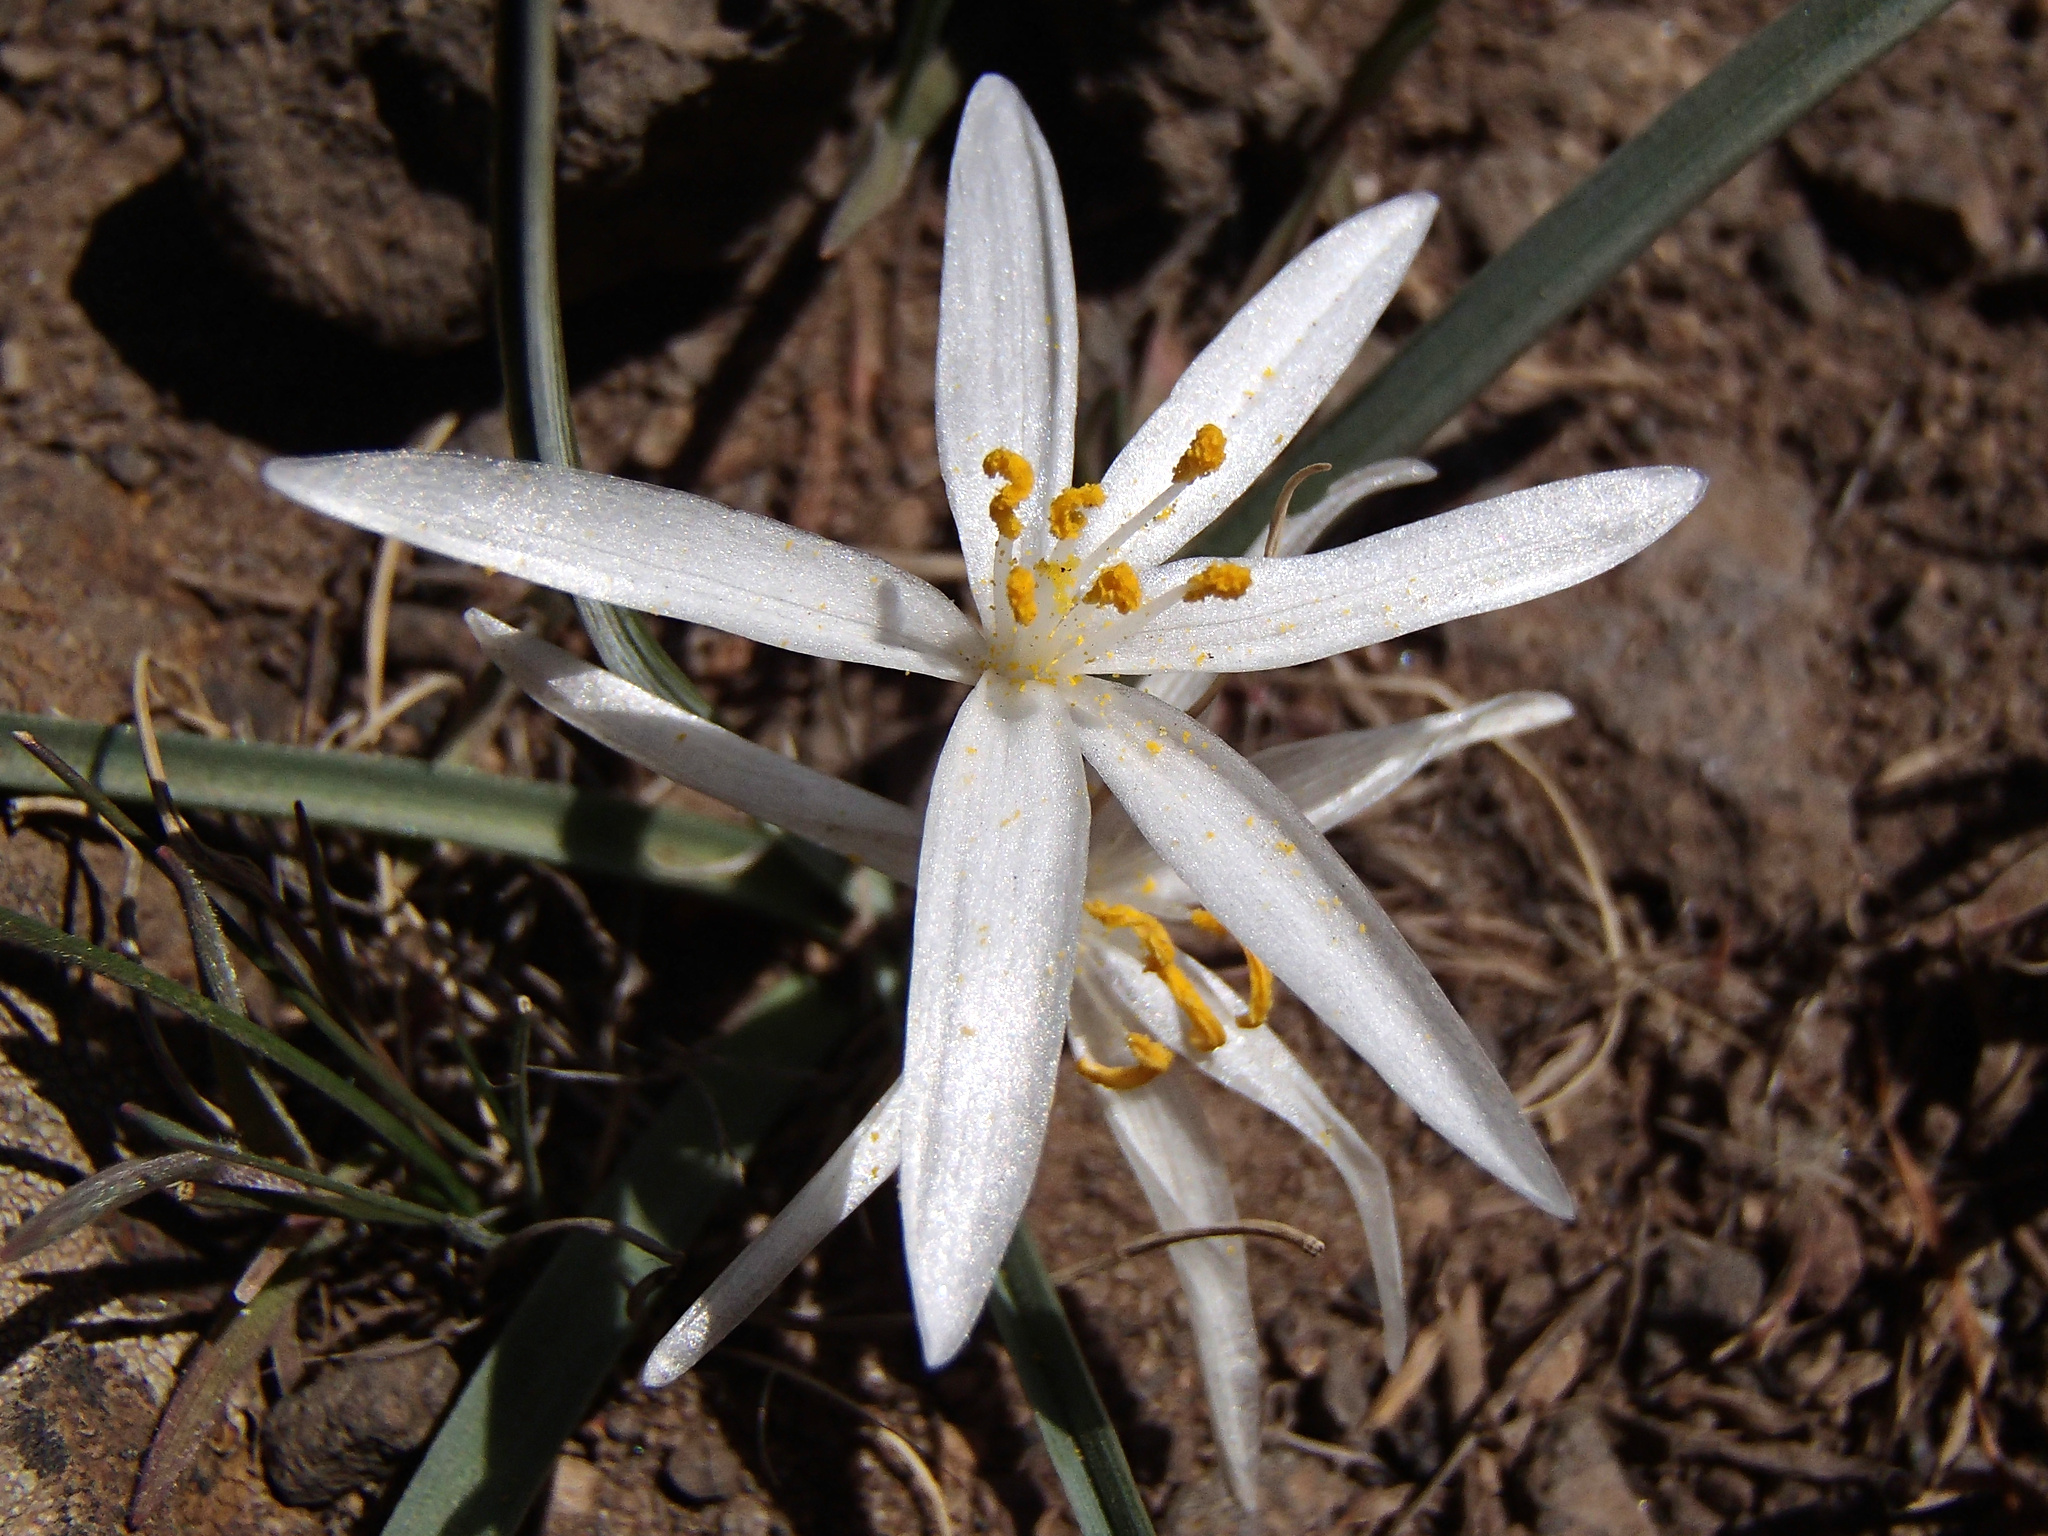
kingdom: Plantae
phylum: Tracheophyta
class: Liliopsida
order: Asparagales
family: Asparagaceae
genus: Leucocrinum
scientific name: Leucocrinum montanum
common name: Mountain-lily
